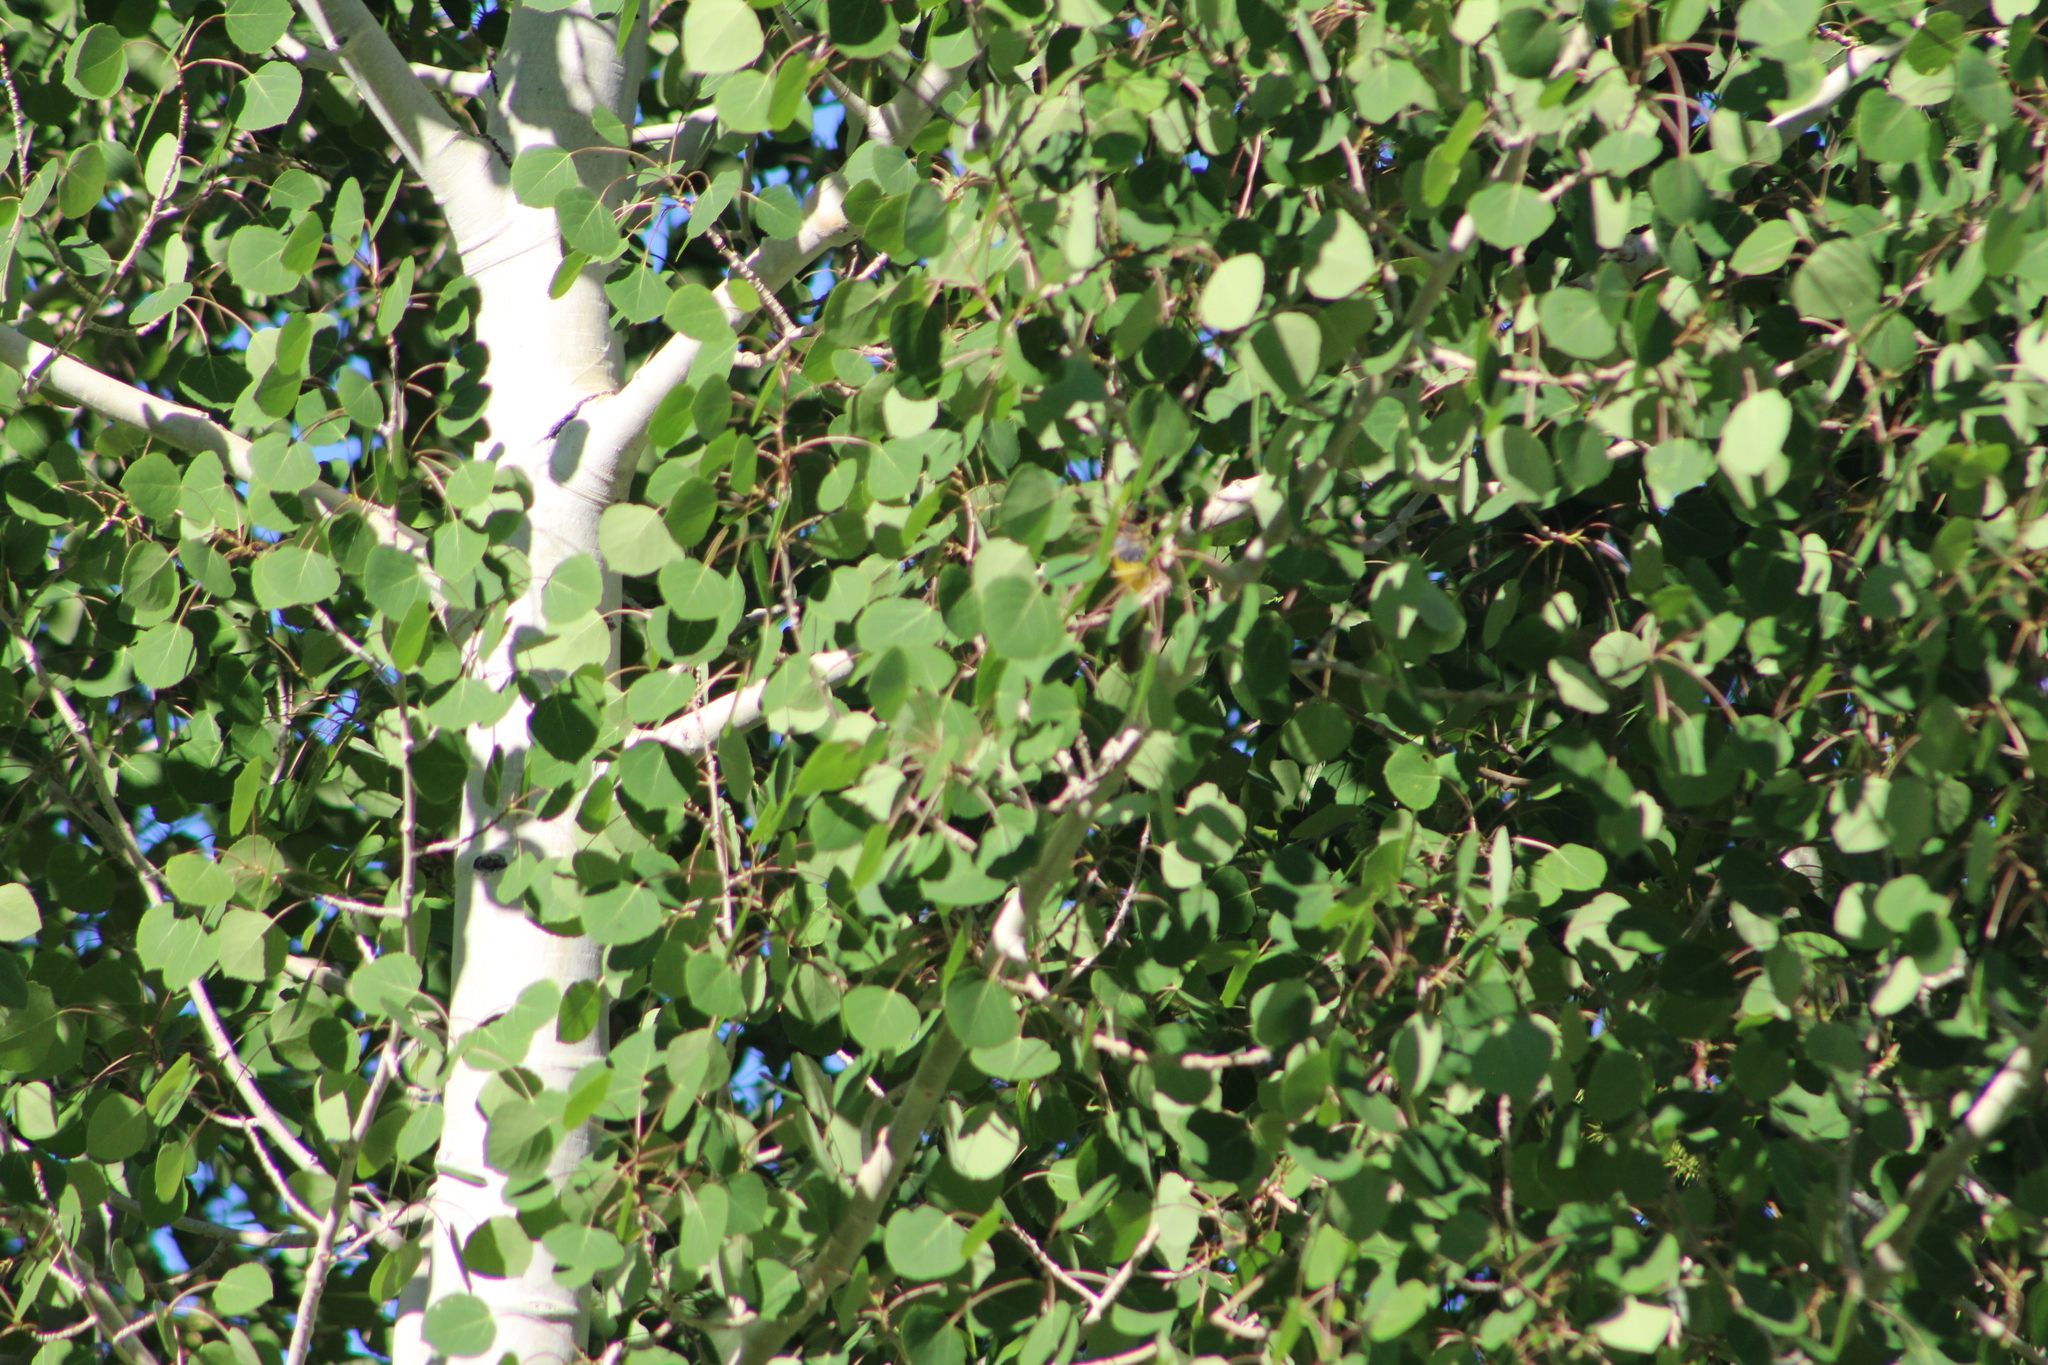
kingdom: Animalia
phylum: Chordata
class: Aves
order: Passeriformes
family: Parulidae
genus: Geothlypis
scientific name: Geothlypis tolmiei
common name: Macgillivray's warbler
